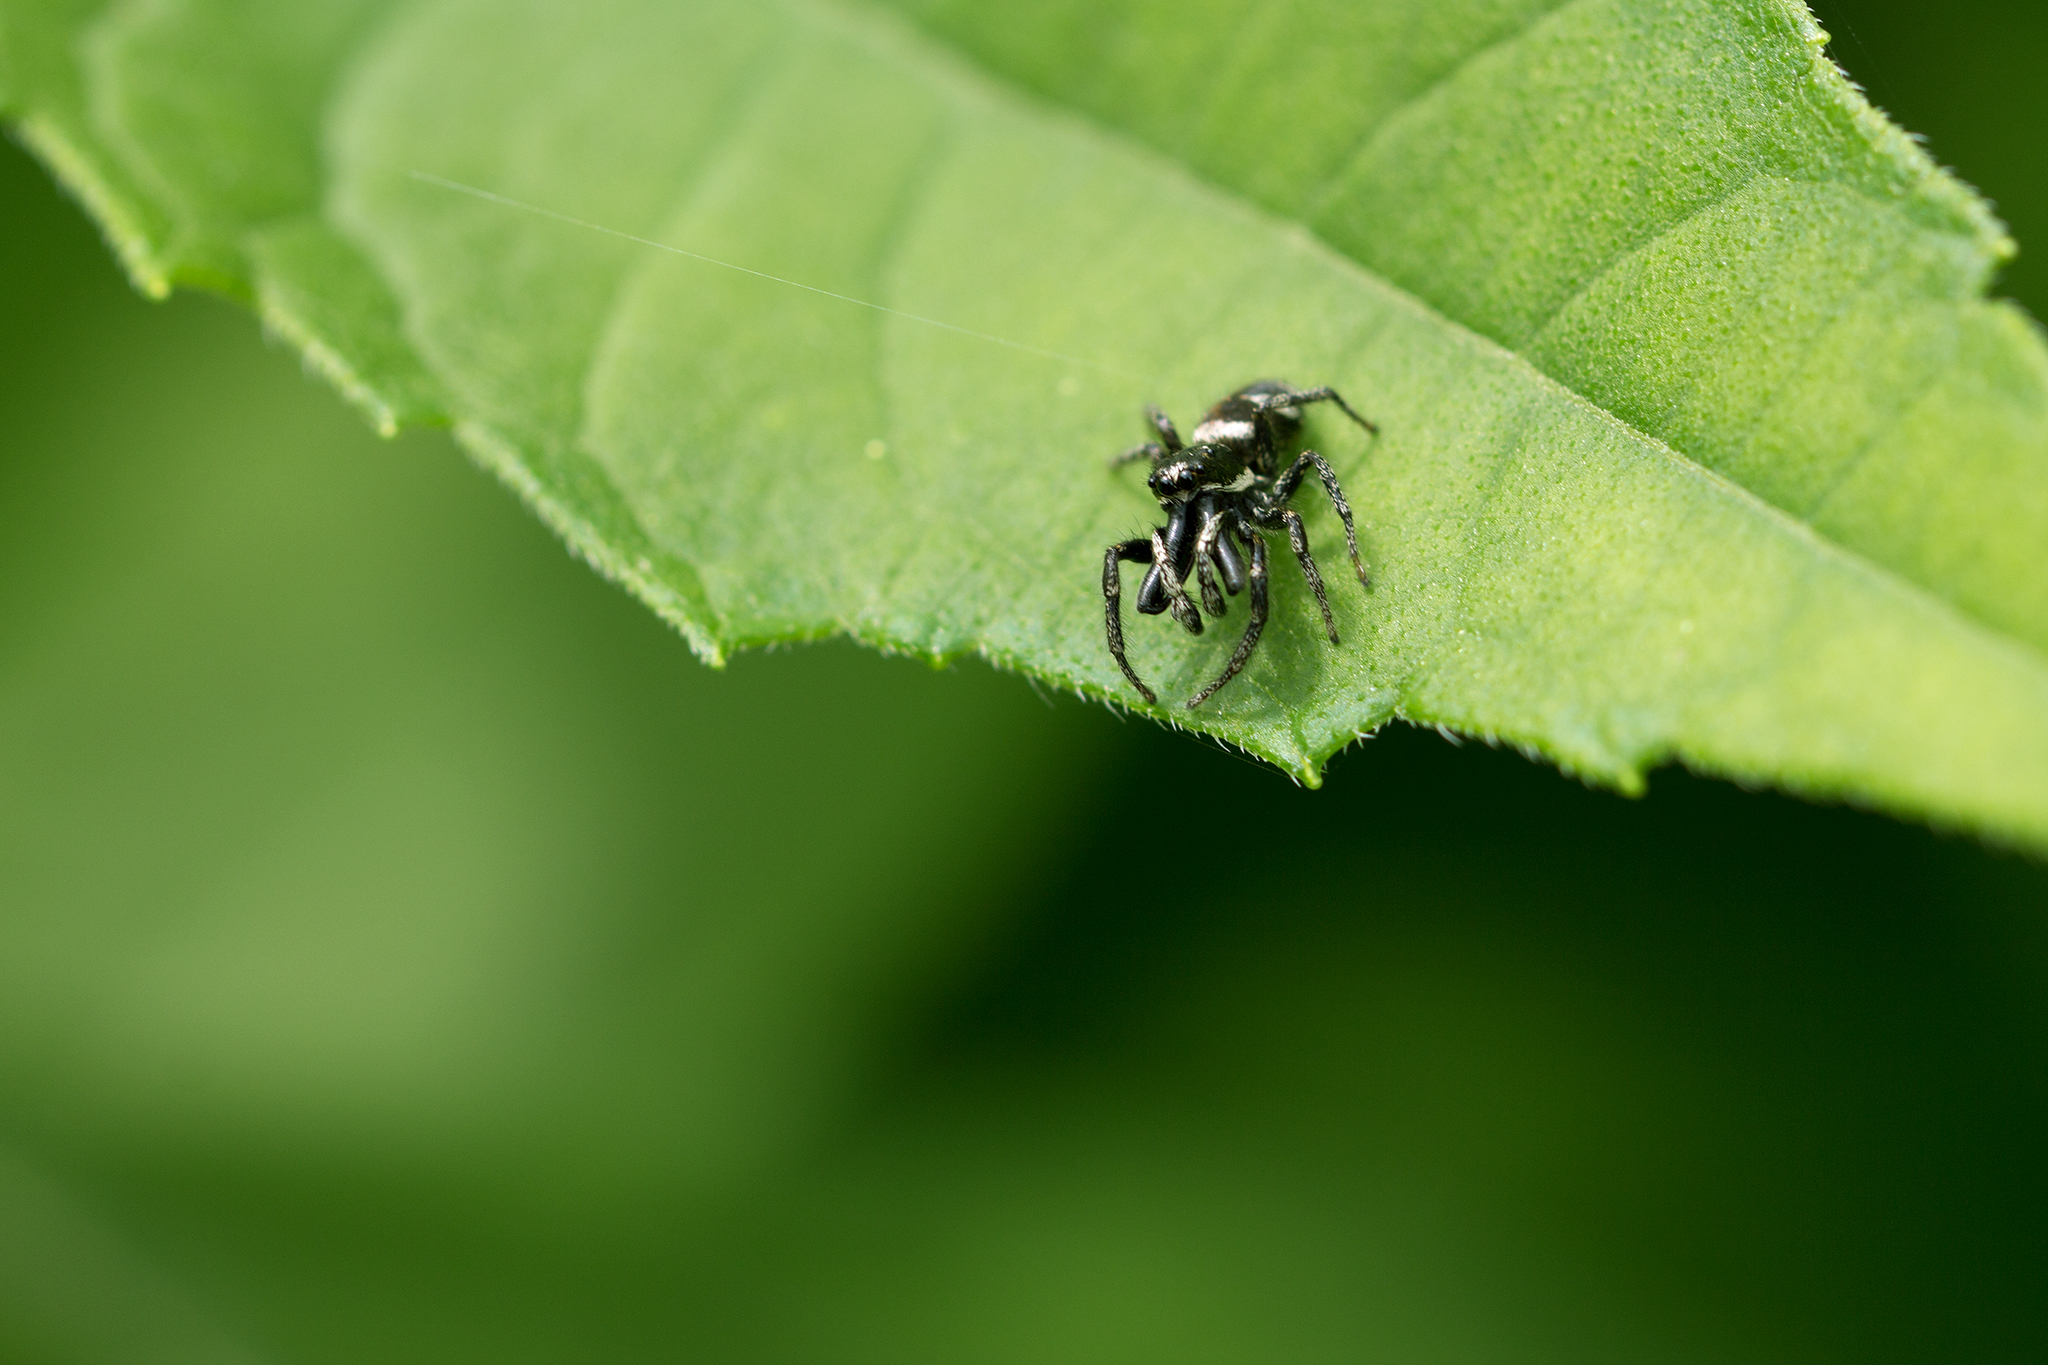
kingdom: Animalia
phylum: Arthropoda
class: Arachnida
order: Araneae
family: Salticidae
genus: Salticus
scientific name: Salticus scenicus
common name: Zebra jumper
